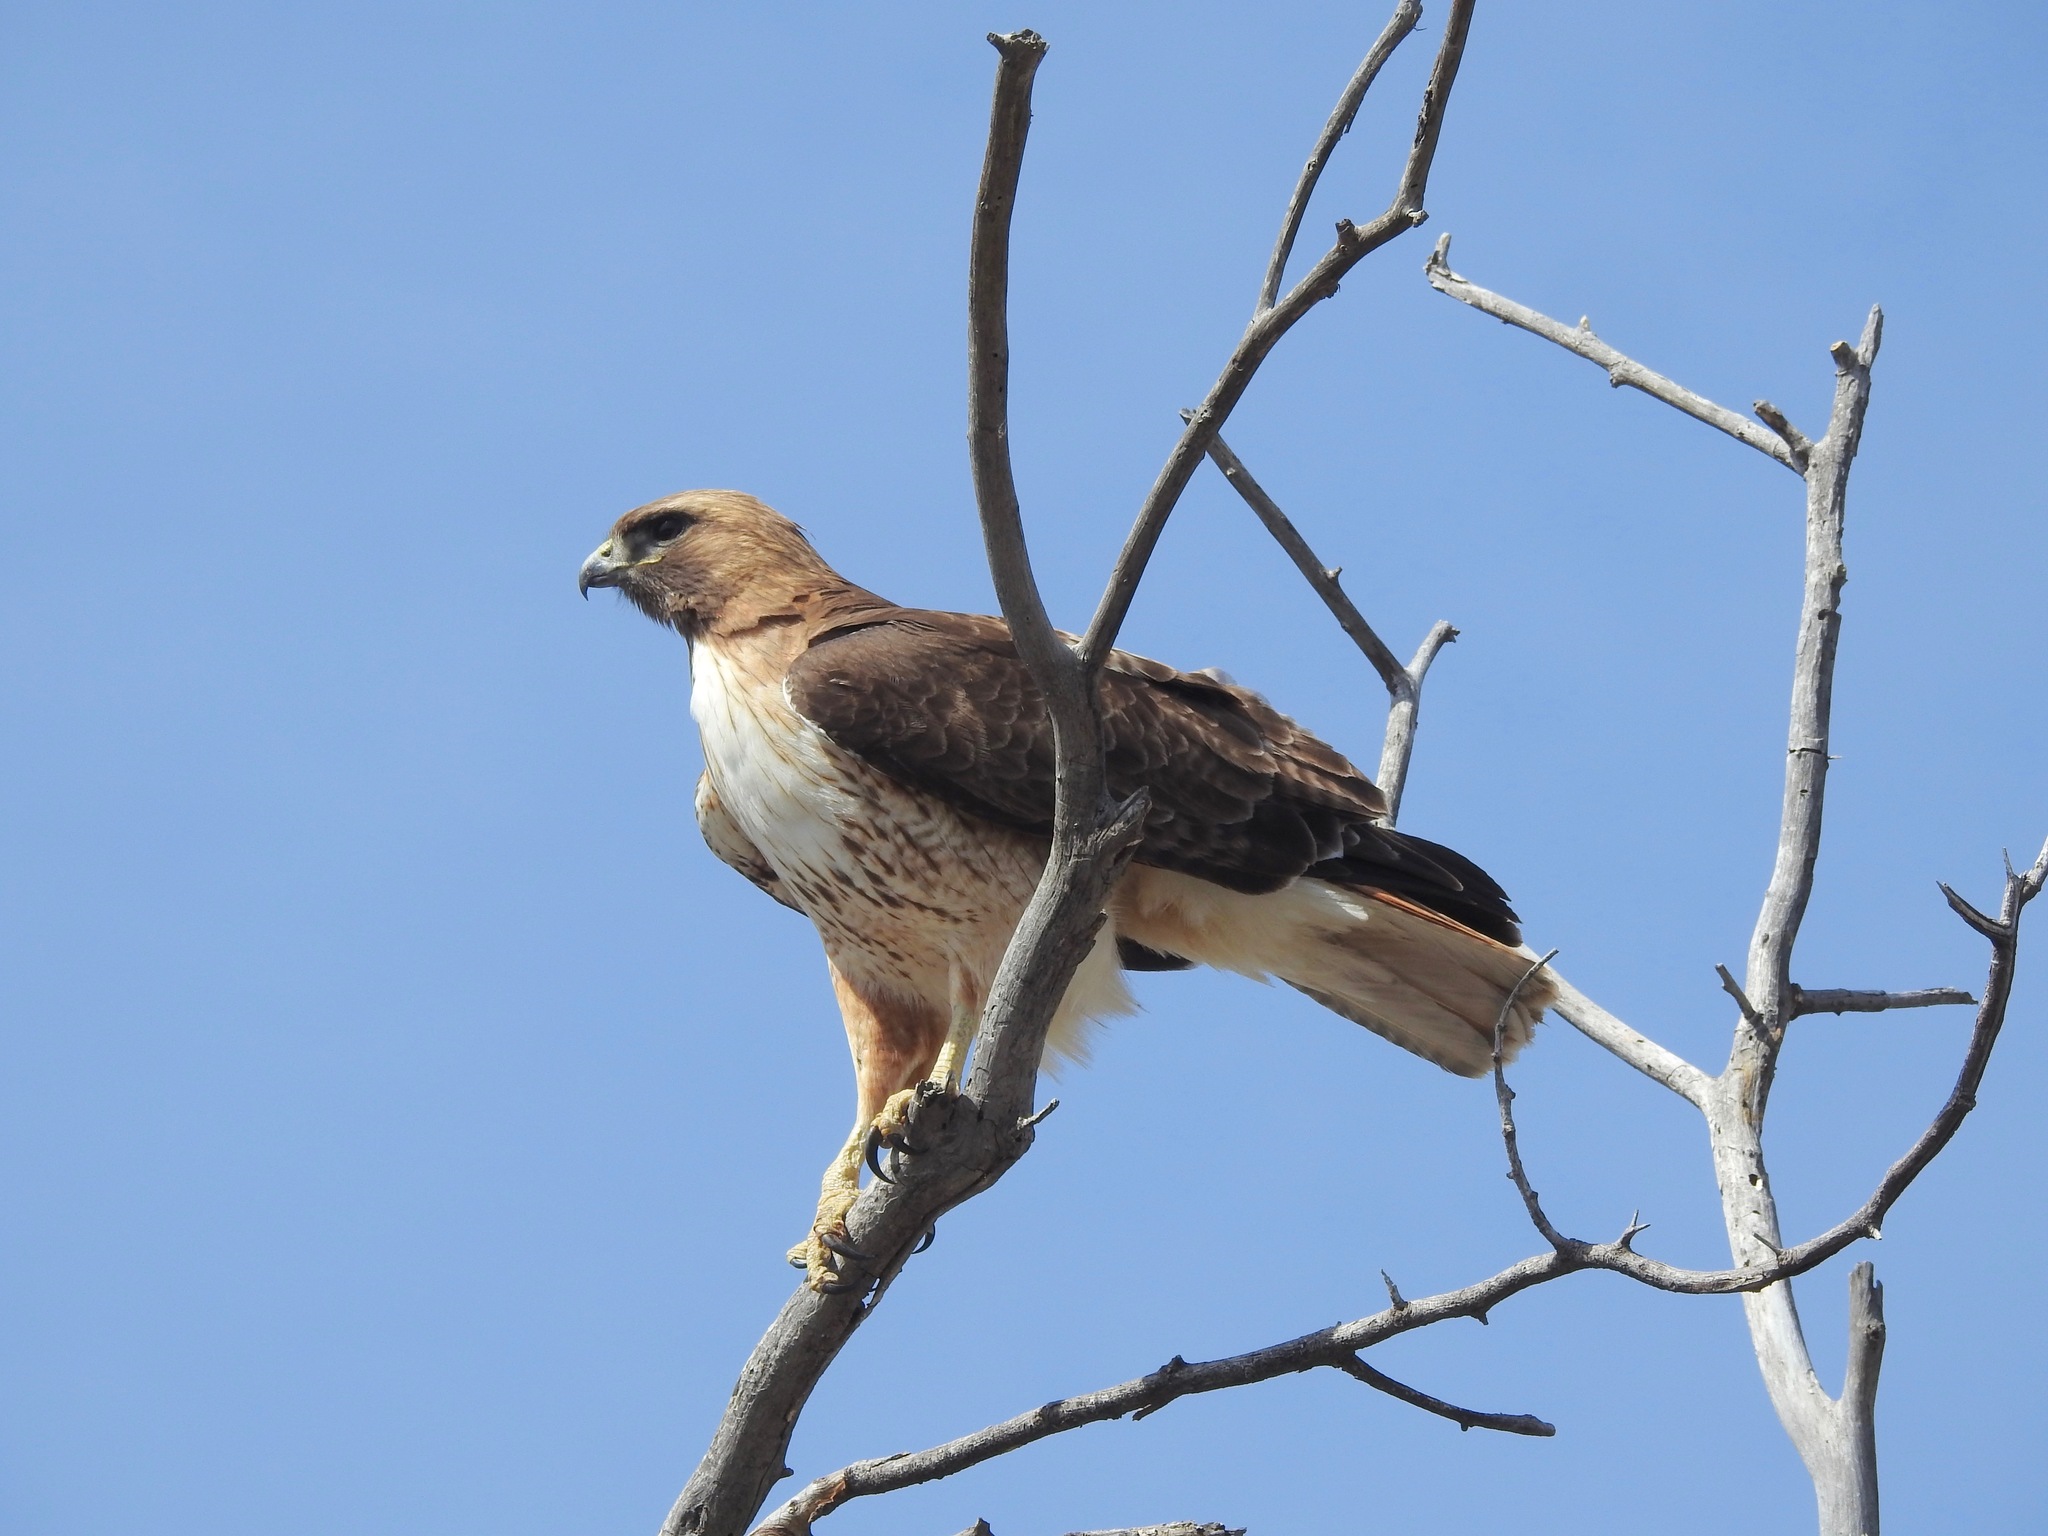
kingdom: Animalia
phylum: Chordata
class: Aves
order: Accipitriformes
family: Accipitridae
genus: Buteo
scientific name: Buteo jamaicensis
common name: Red-tailed hawk
